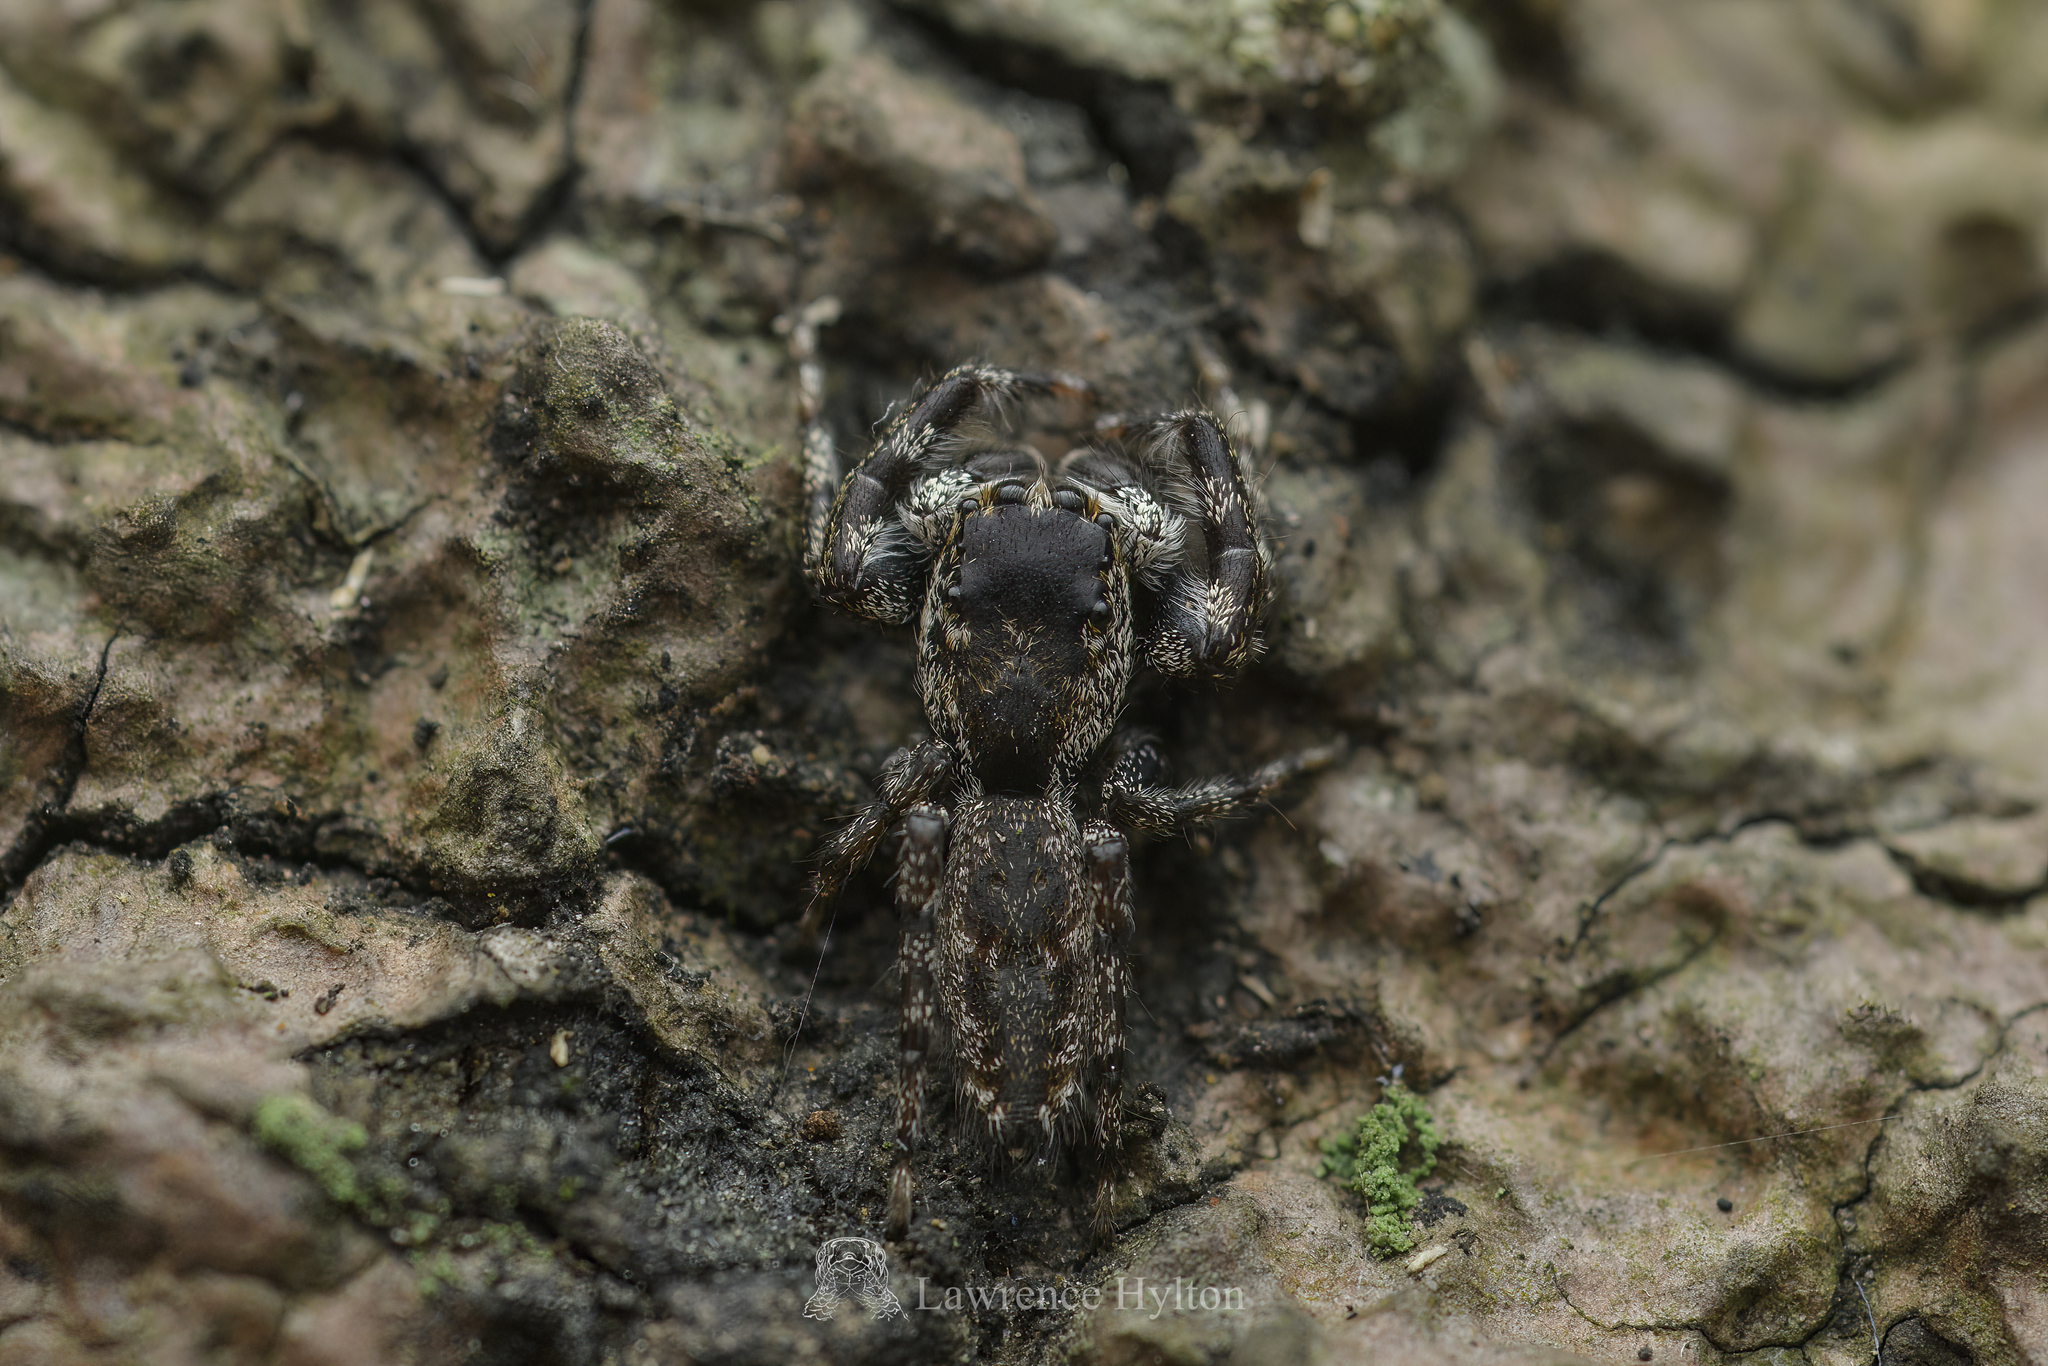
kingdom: Animalia
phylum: Arthropoda
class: Arachnida
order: Araneae
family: Salticidae
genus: Kelawakaju
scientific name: Kelawakaju frenata
